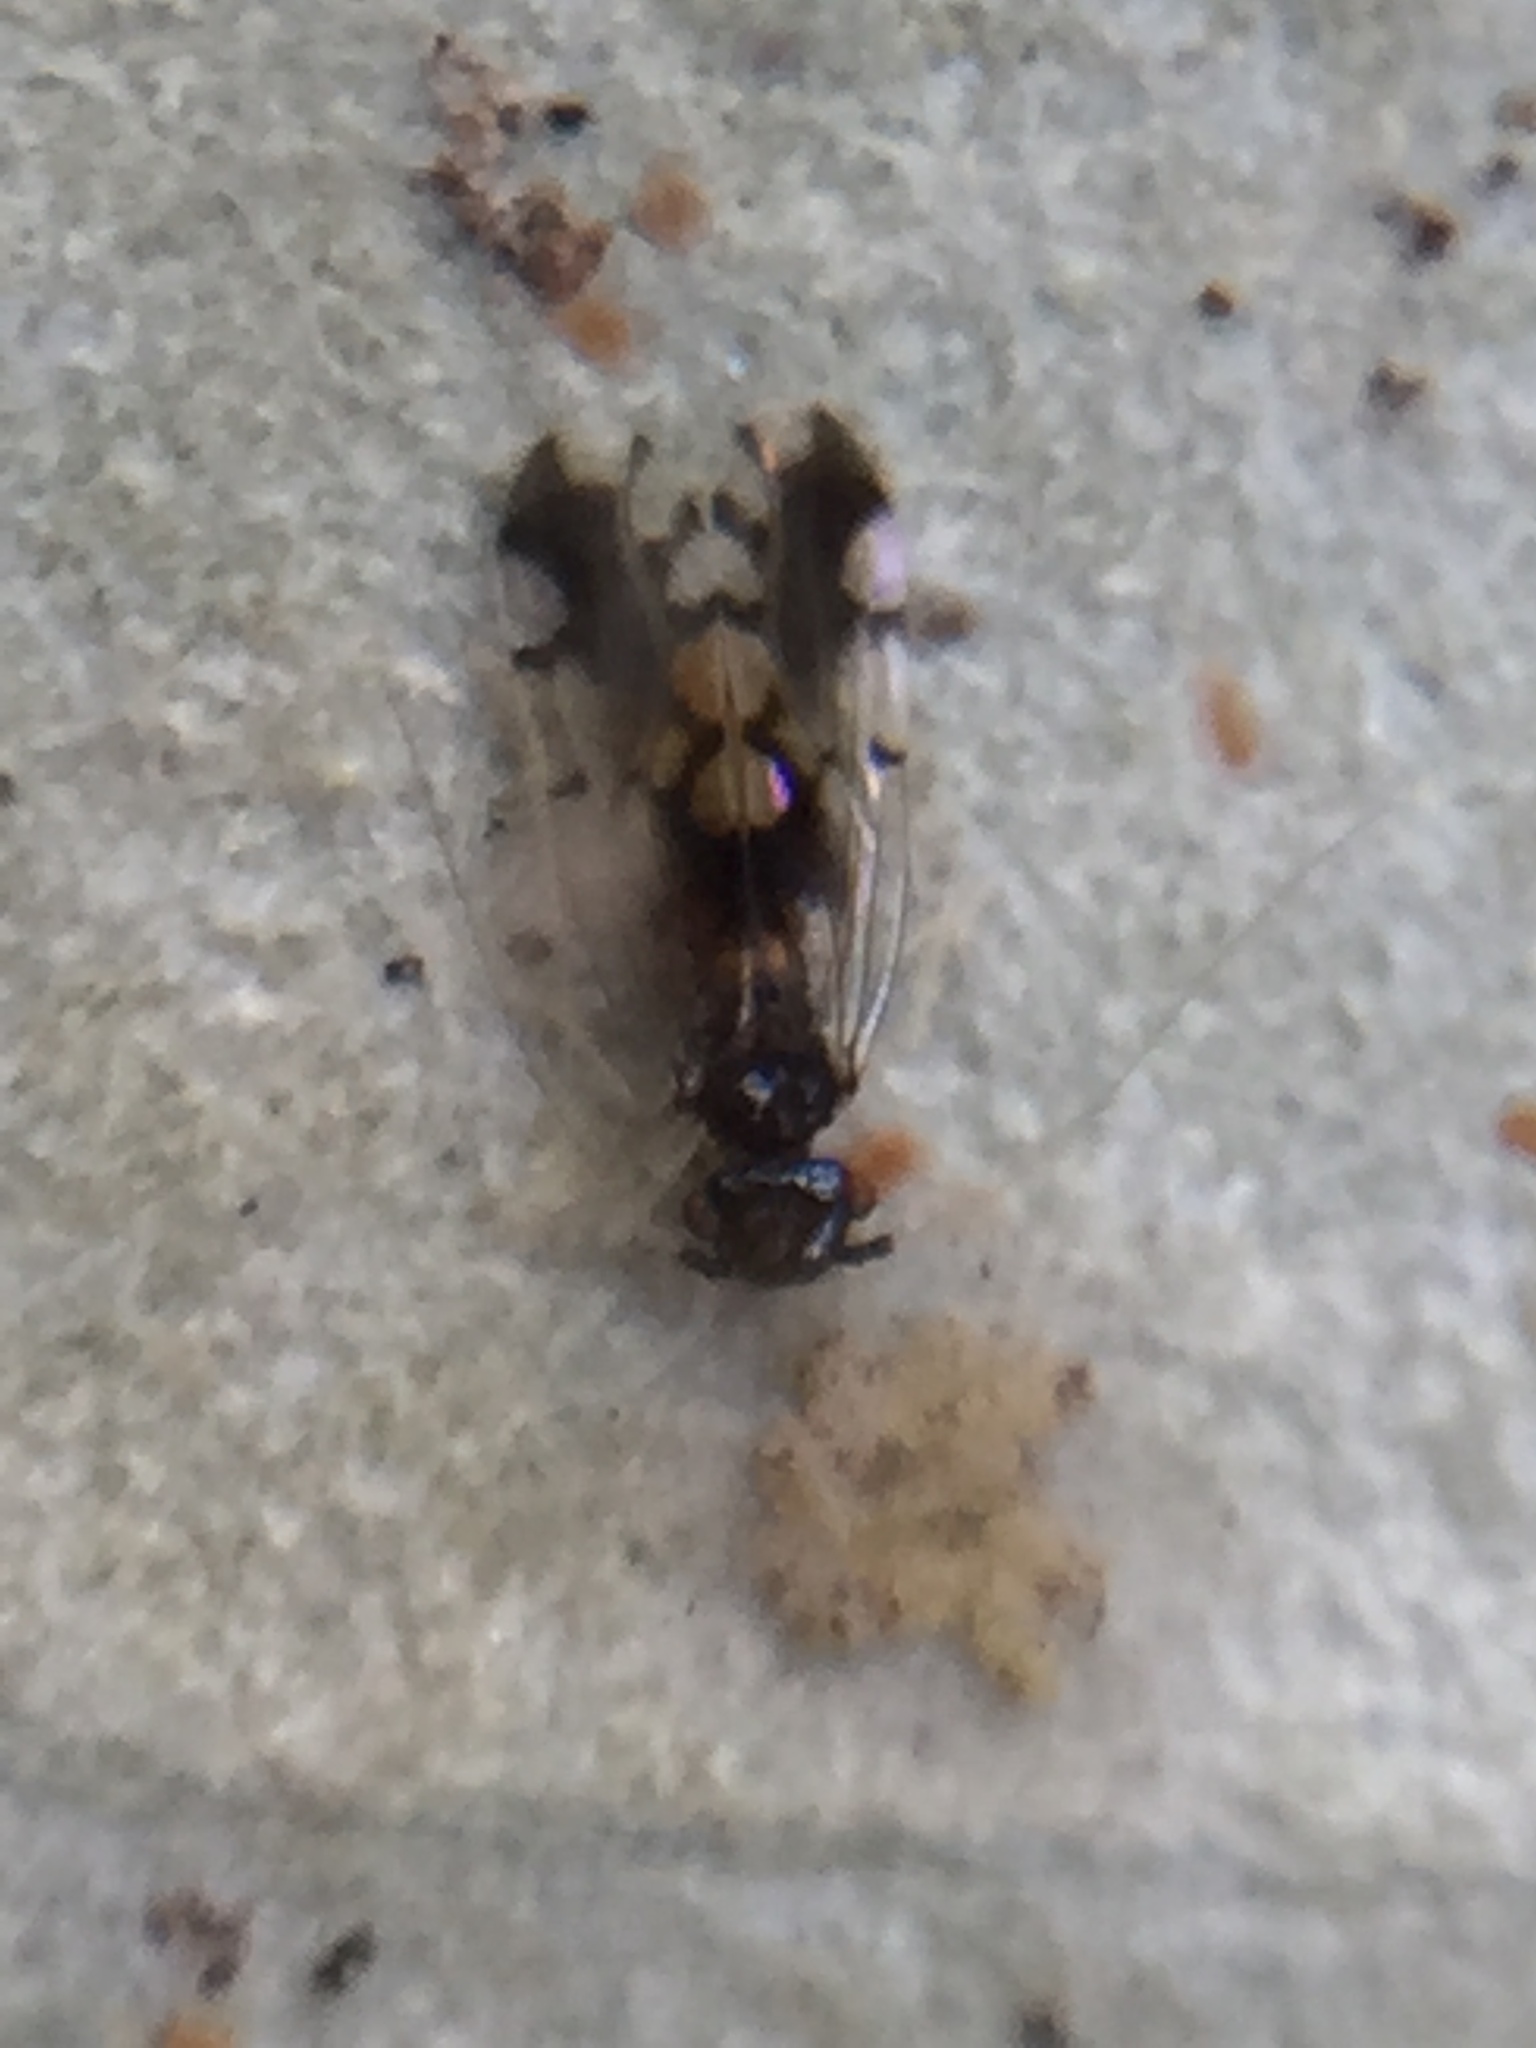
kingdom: Animalia
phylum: Arthropoda
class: Insecta
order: Psocodea
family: Ectopsocidae
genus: Ectopsocus
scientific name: Ectopsocus gracilis
